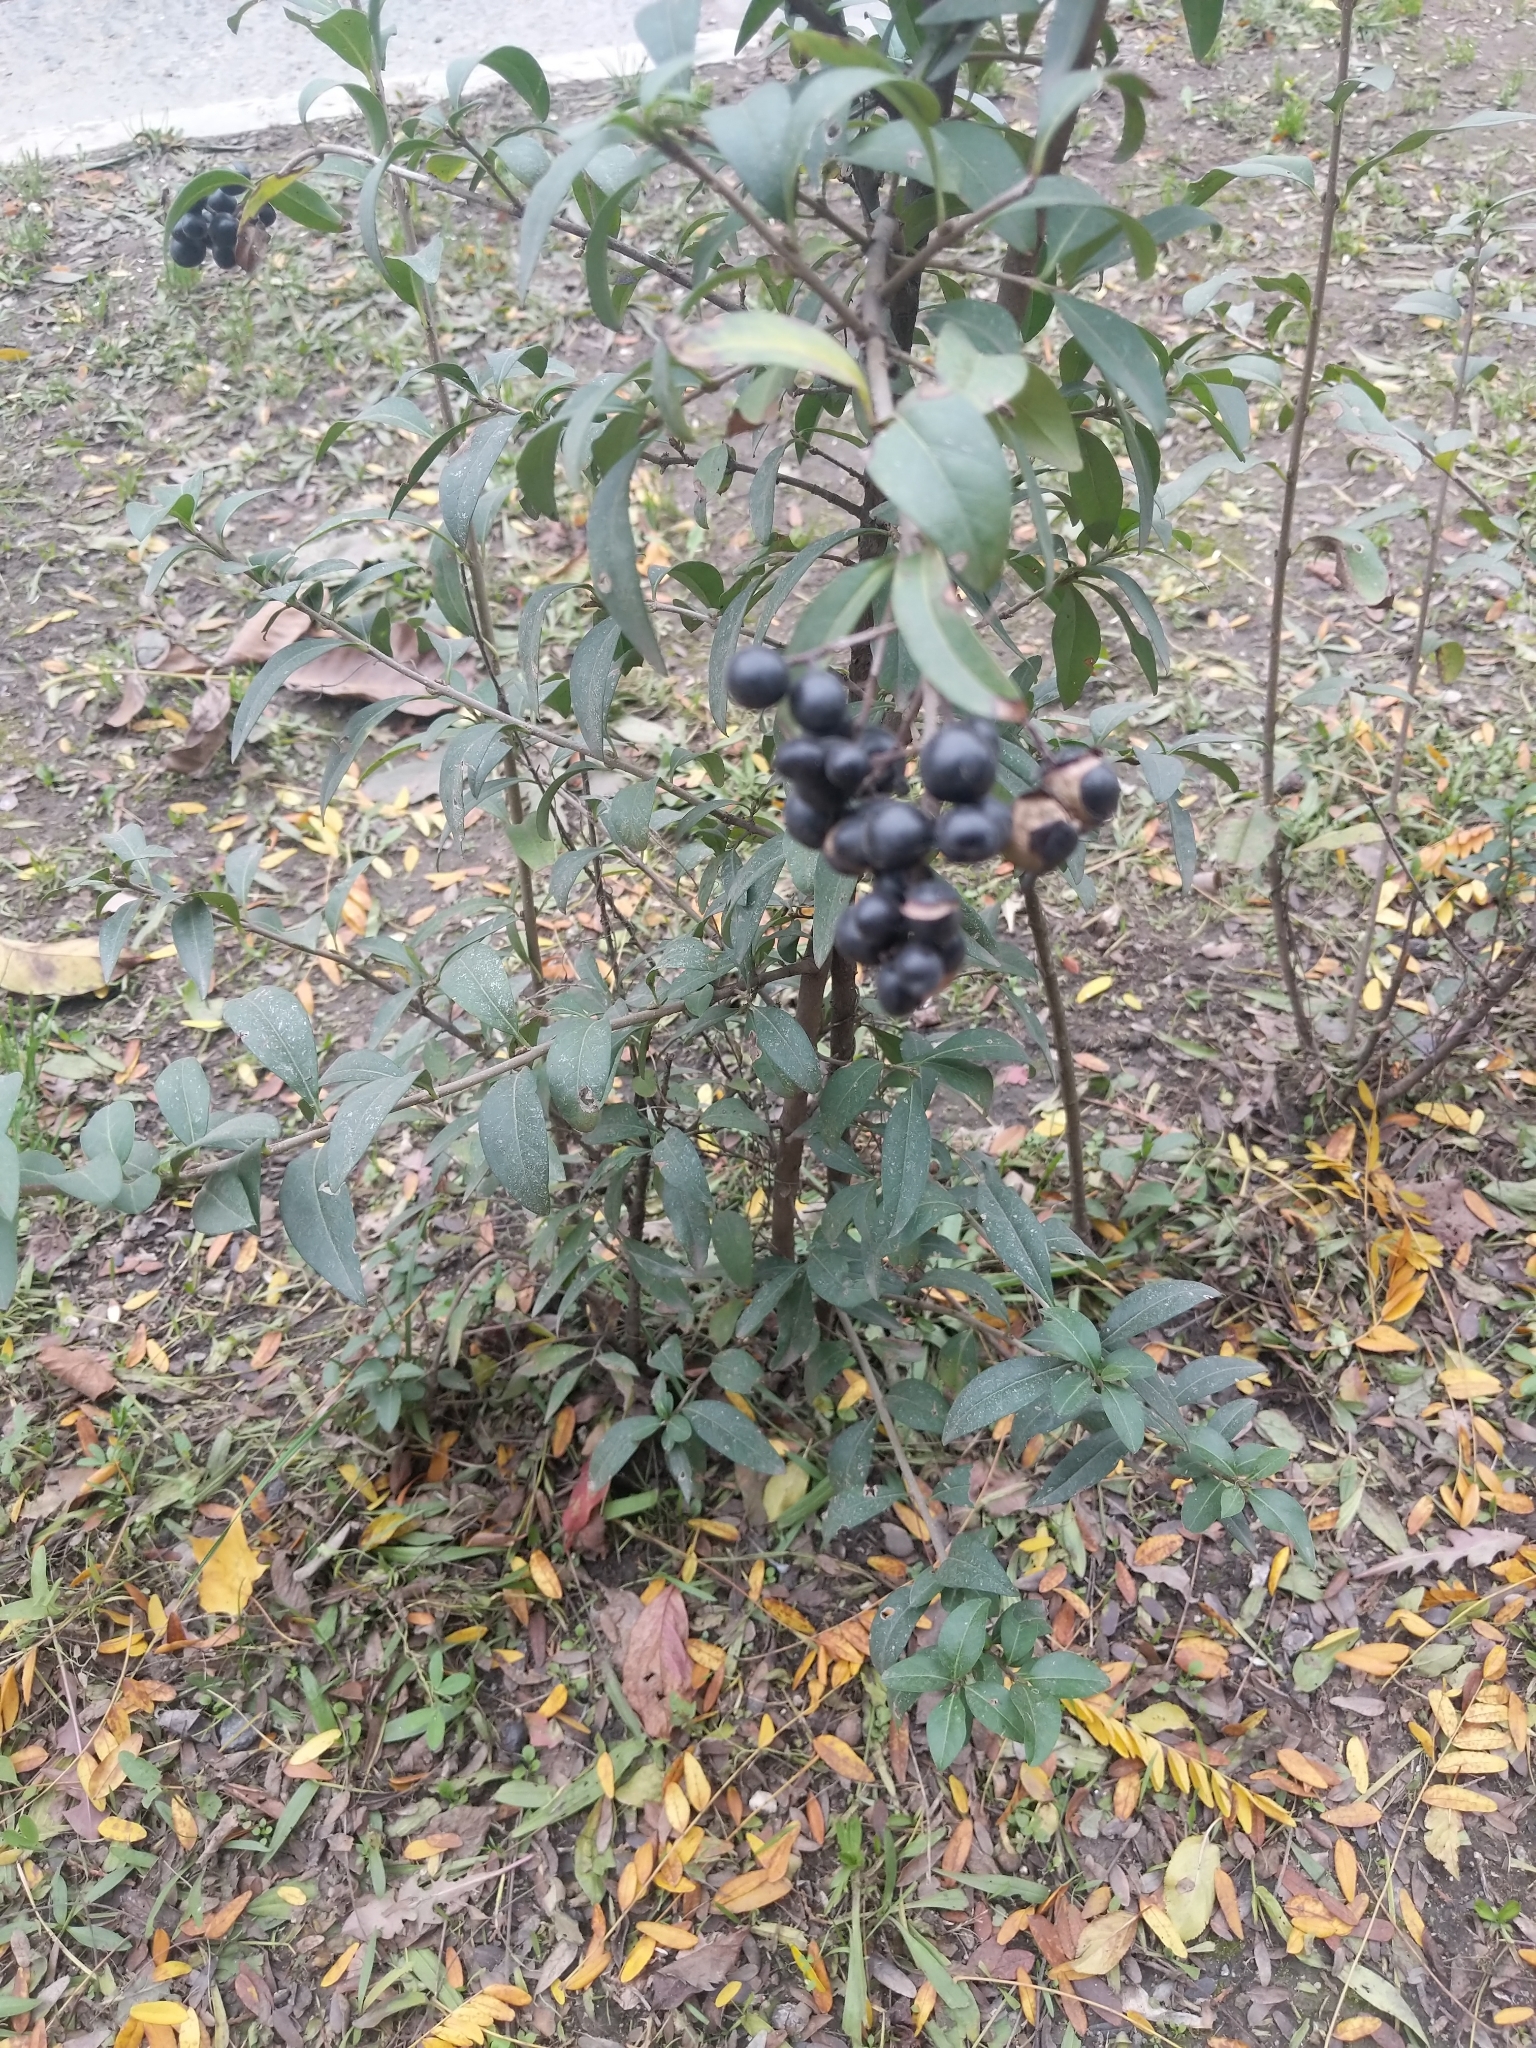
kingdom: Plantae
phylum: Tracheophyta
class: Magnoliopsida
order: Lamiales
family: Oleaceae
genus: Ligustrum
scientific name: Ligustrum vulgare
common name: Wild privet
